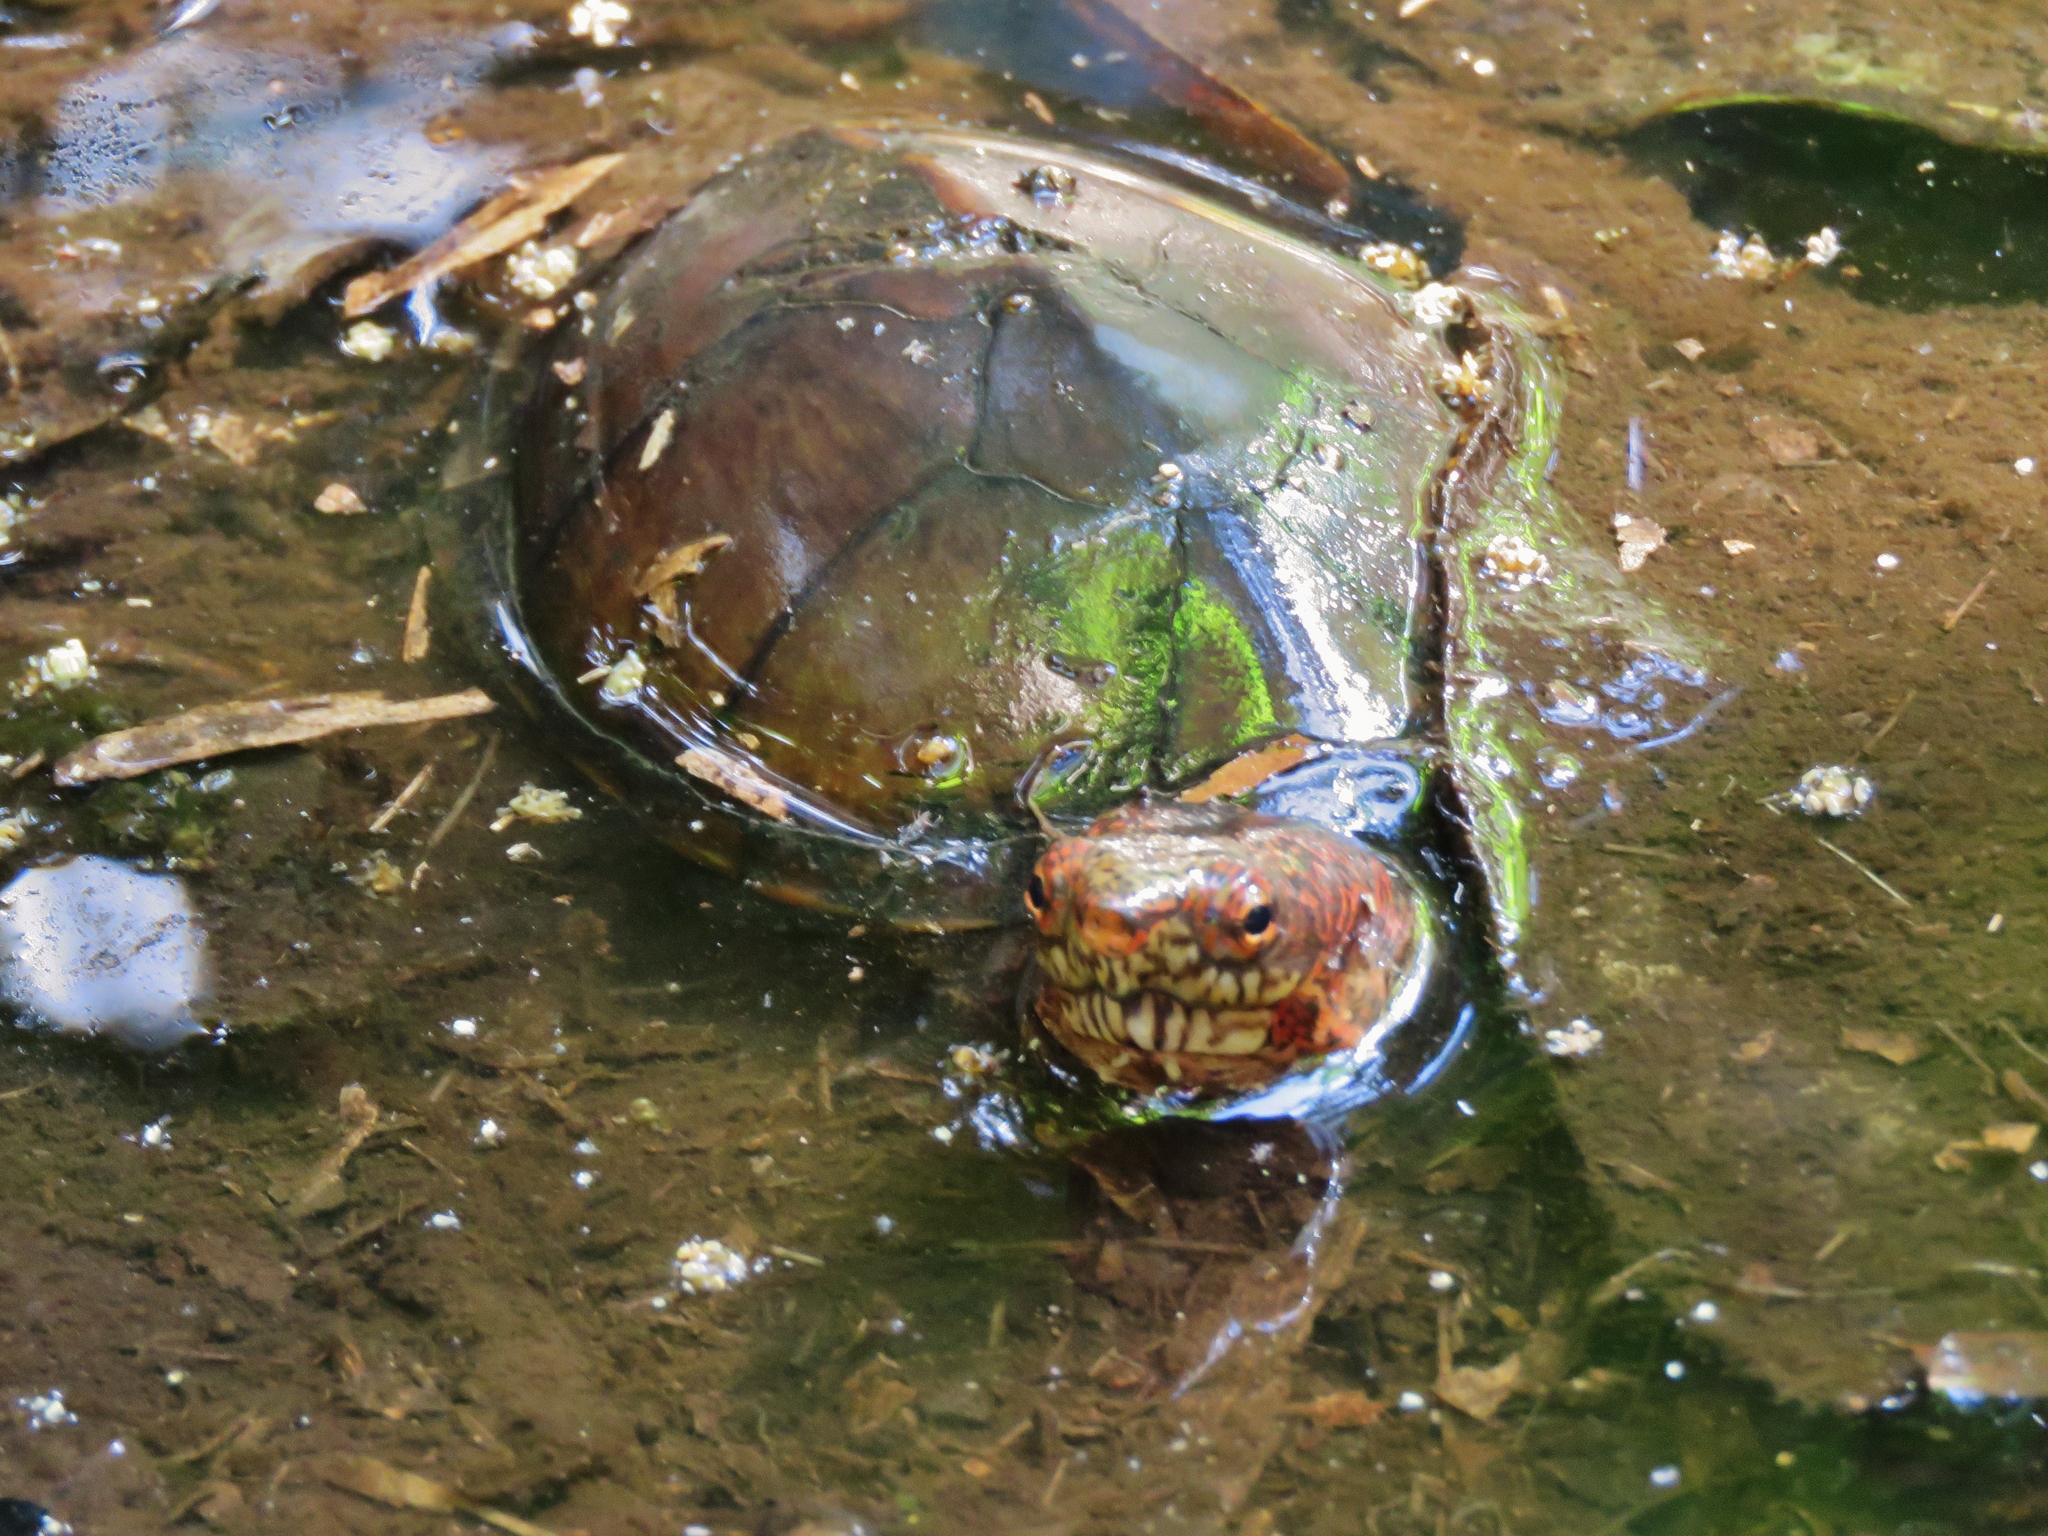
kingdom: Animalia
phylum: Chordata
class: Testudines
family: Kinosternidae
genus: Kinosternon
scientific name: Kinosternon acutum
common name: Tabasco mud turtle
